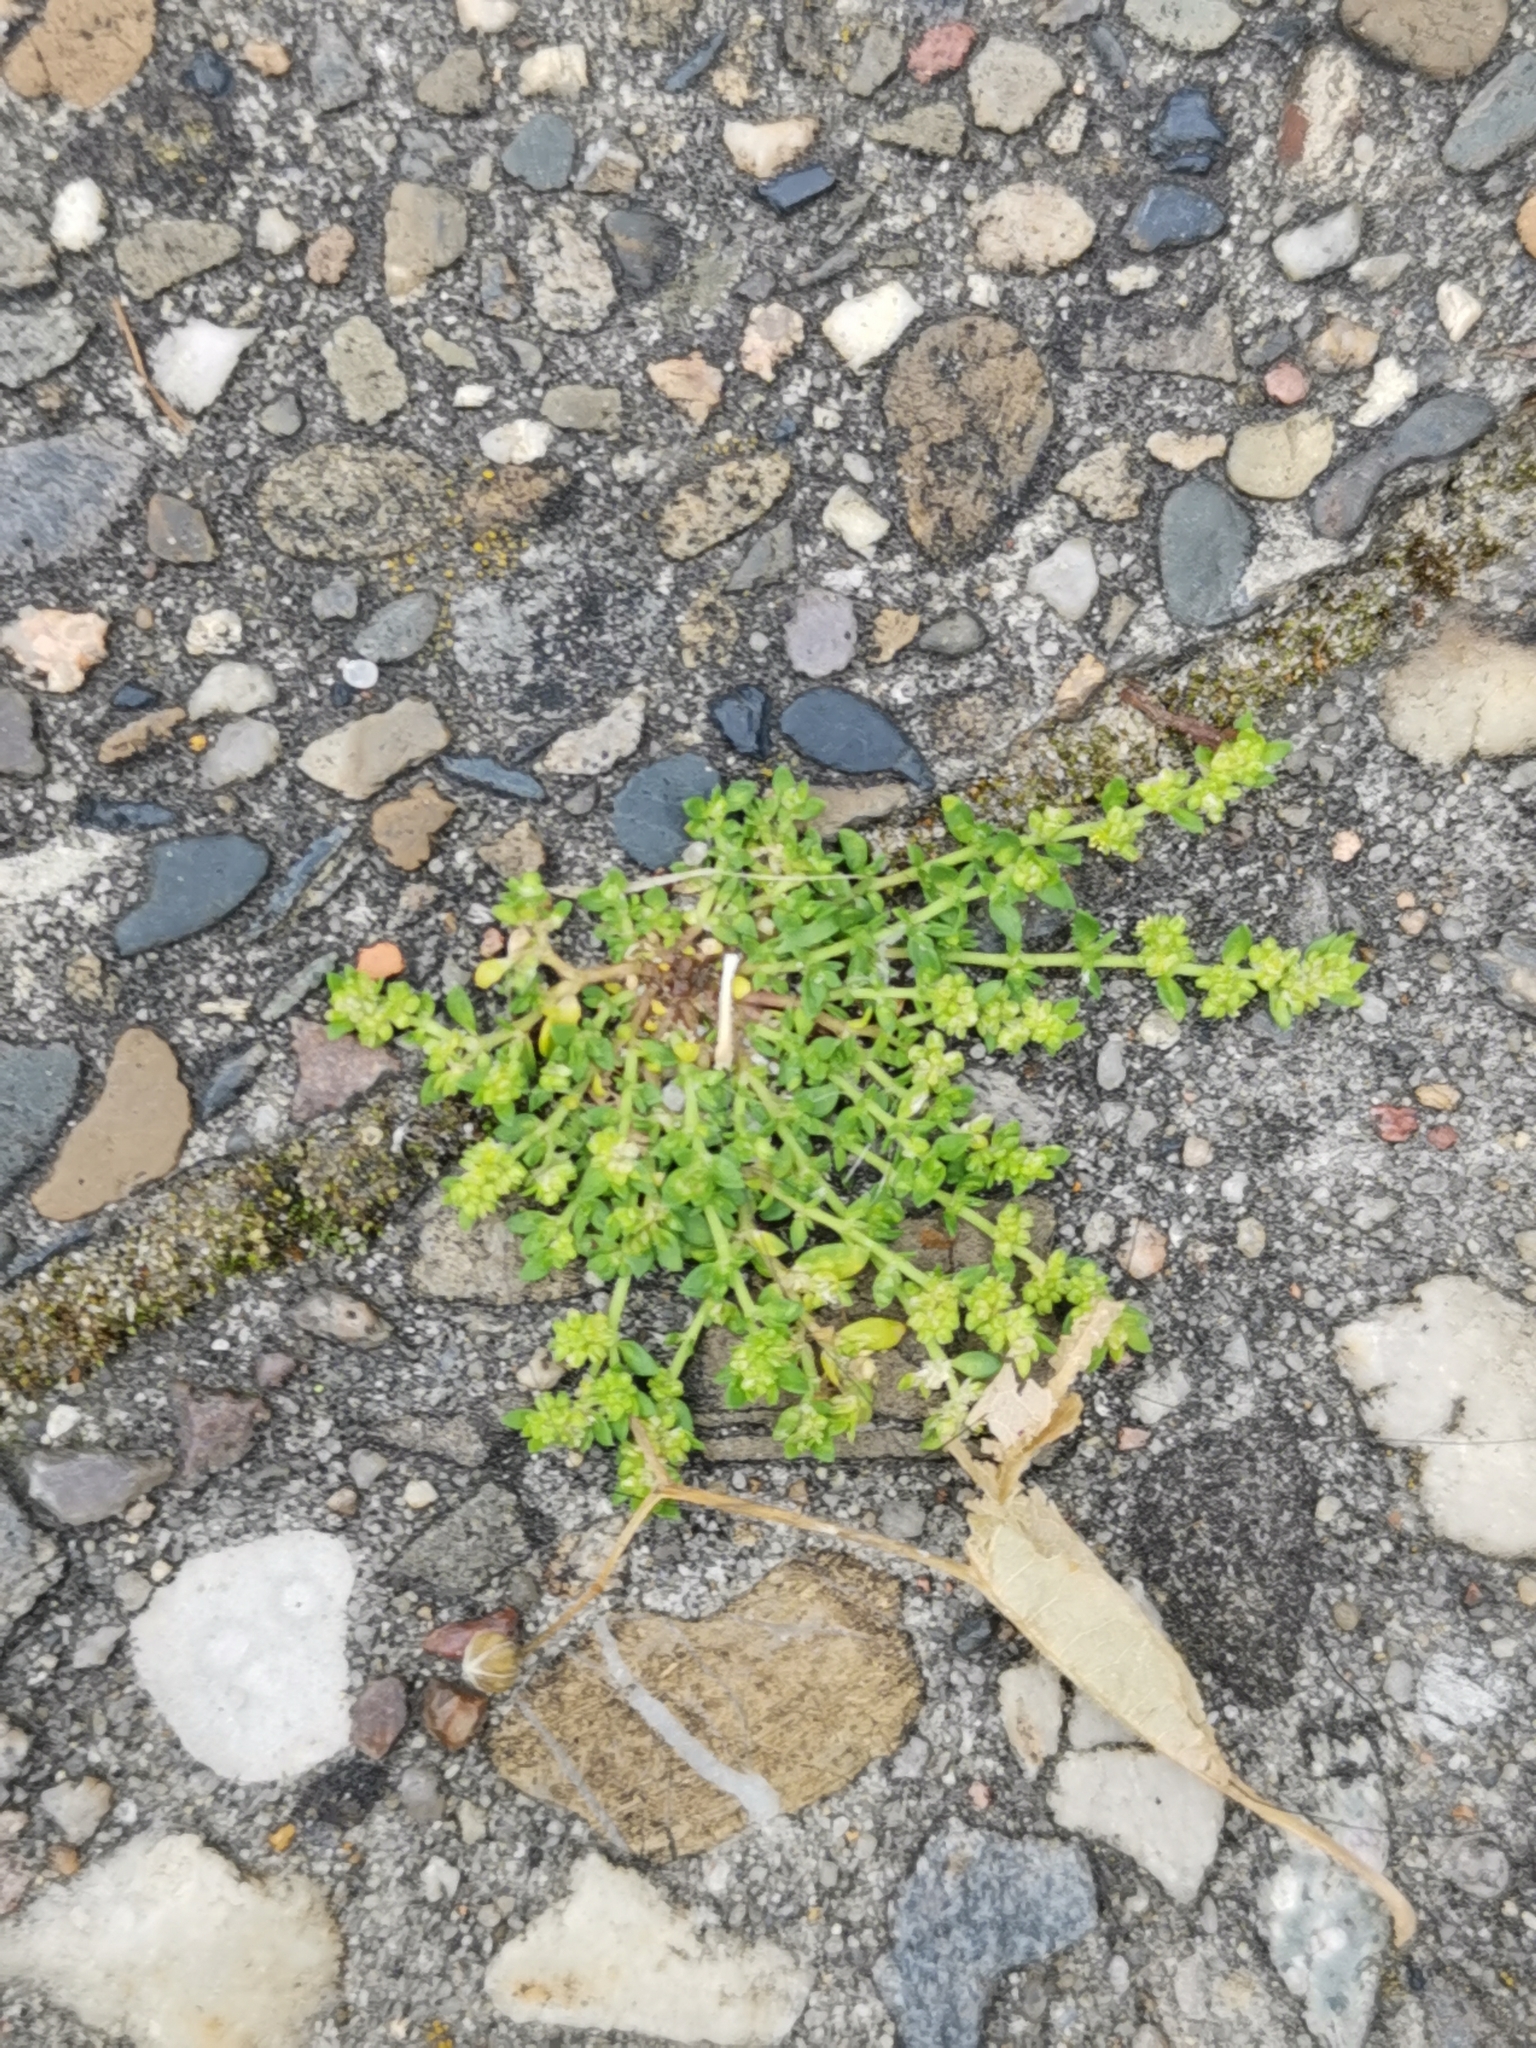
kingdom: Plantae
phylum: Tracheophyta
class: Magnoliopsida
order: Caryophyllales
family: Caryophyllaceae
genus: Herniaria
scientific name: Herniaria glabra
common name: Smooth rupturewort
